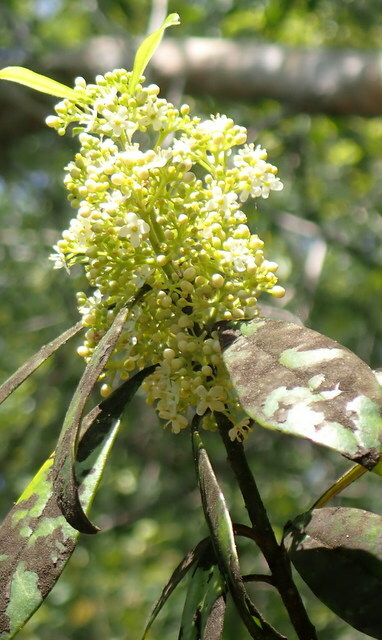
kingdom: Plantae
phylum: Tracheophyta
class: Magnoliopsida
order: Aquifoliales
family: Aquifoliaceae
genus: Ilex
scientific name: Ilex cassine
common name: Dahoon
